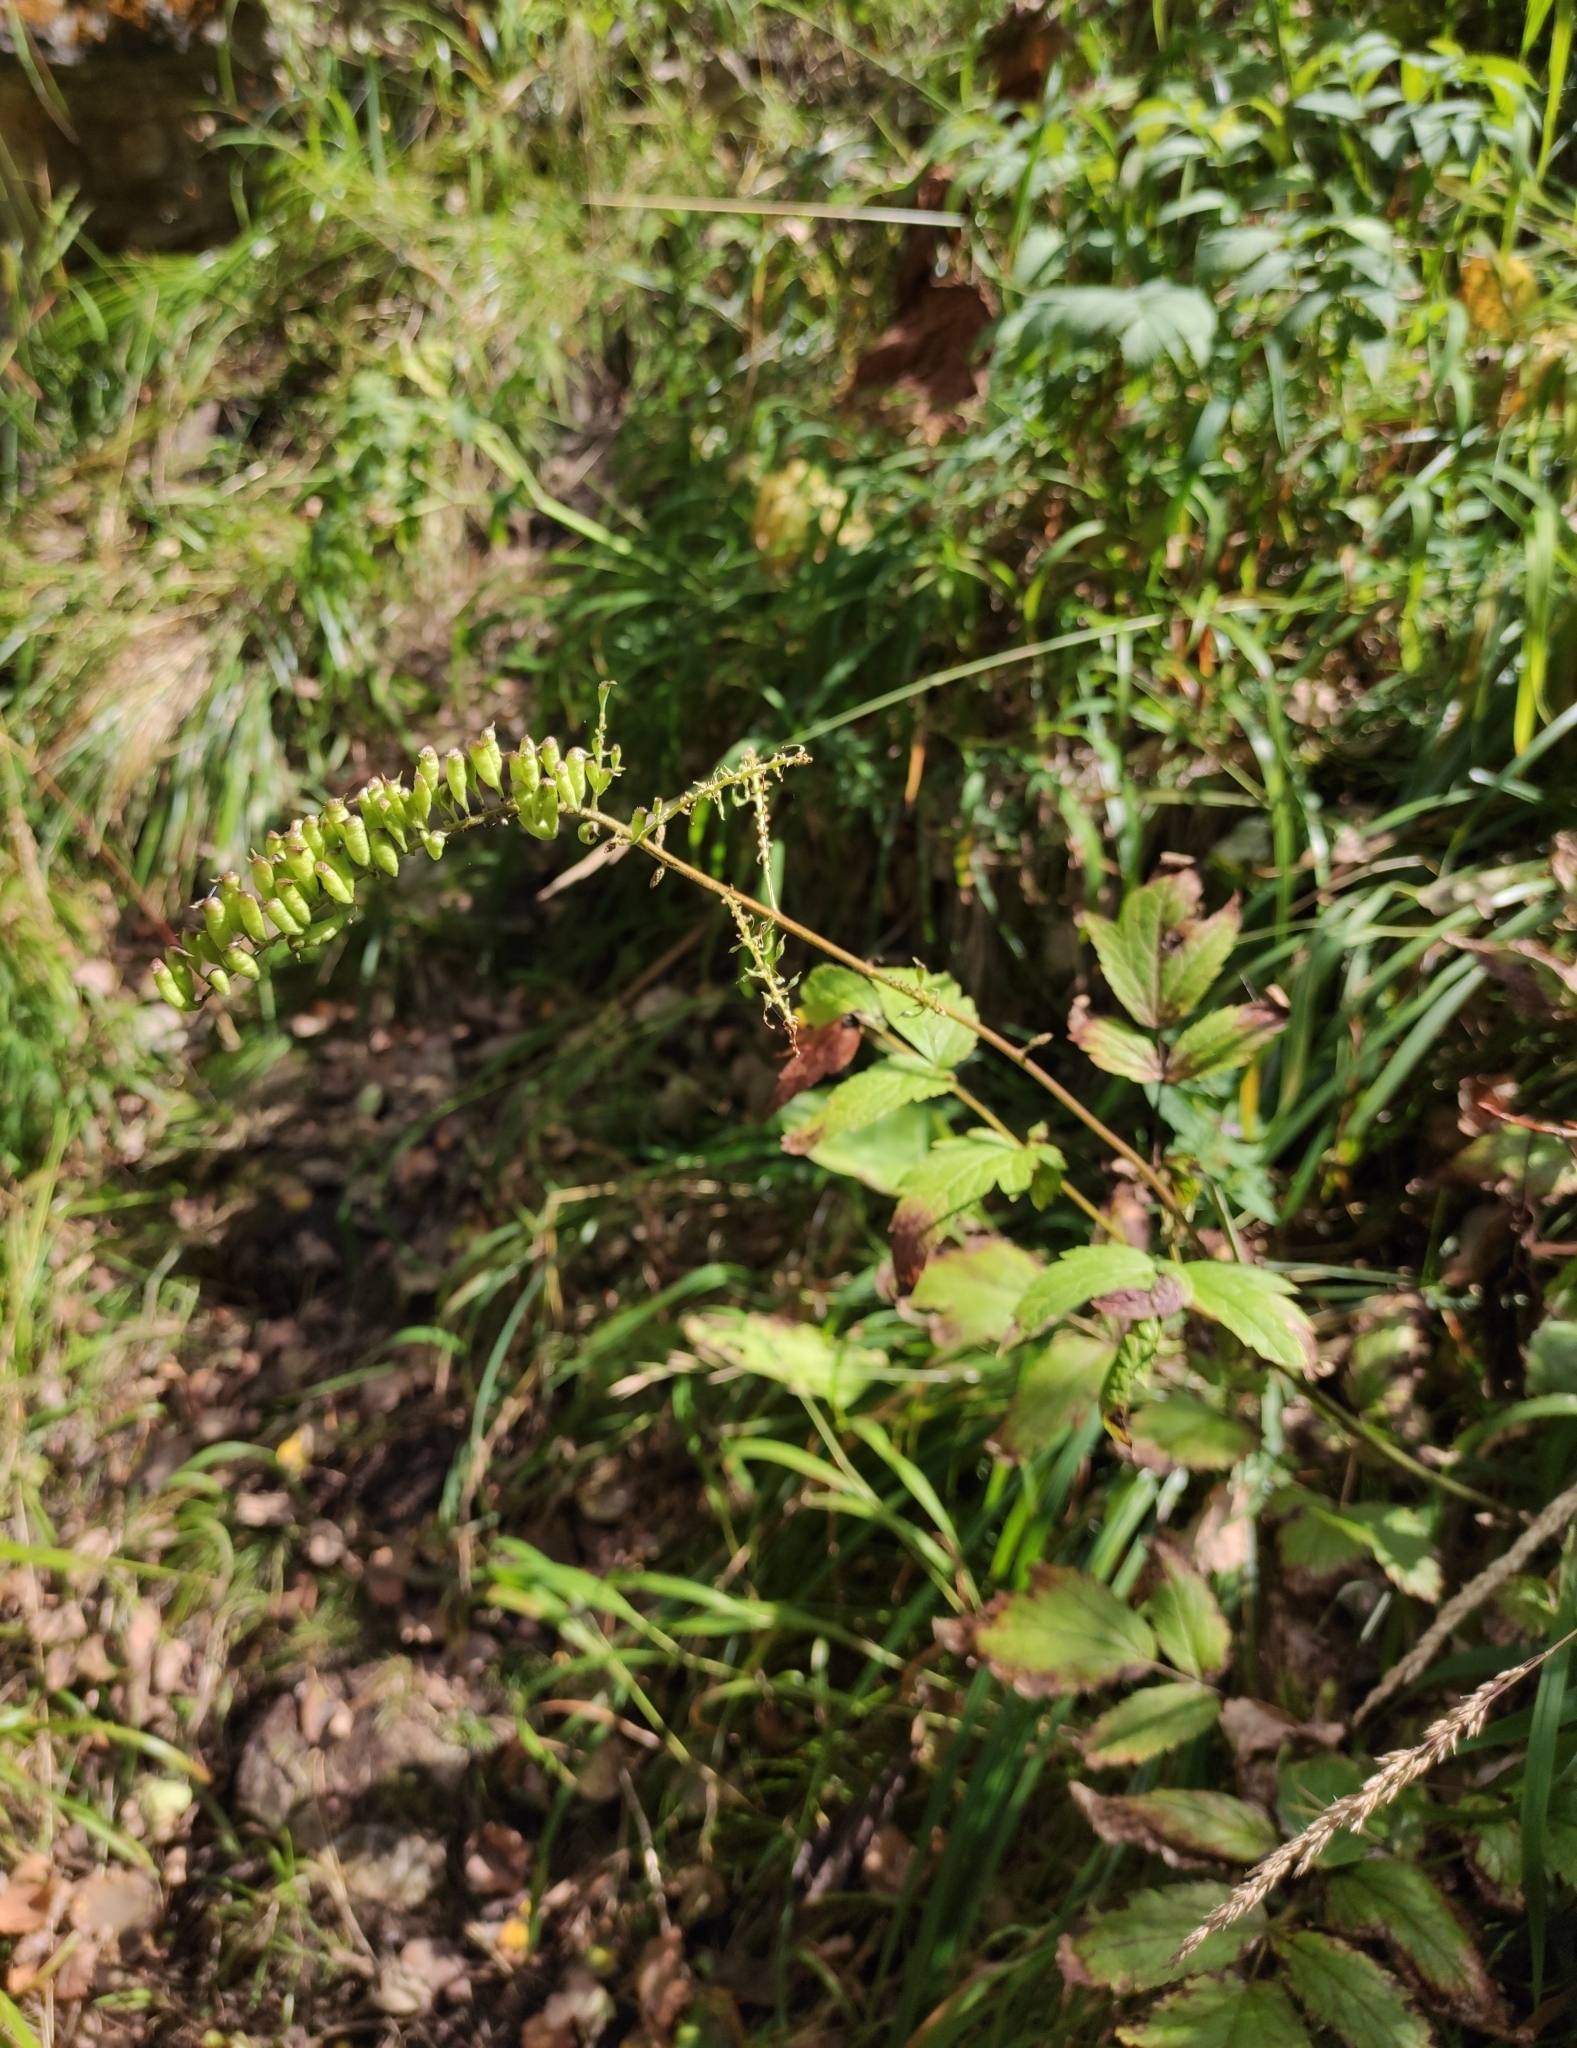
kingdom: Plantae
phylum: Tracheophyta
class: Magnoliopsida
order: Ranunculales
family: Ranunculaceae
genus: Actaea
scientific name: Actaea cimicifuga
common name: Chinese cimicifuga
